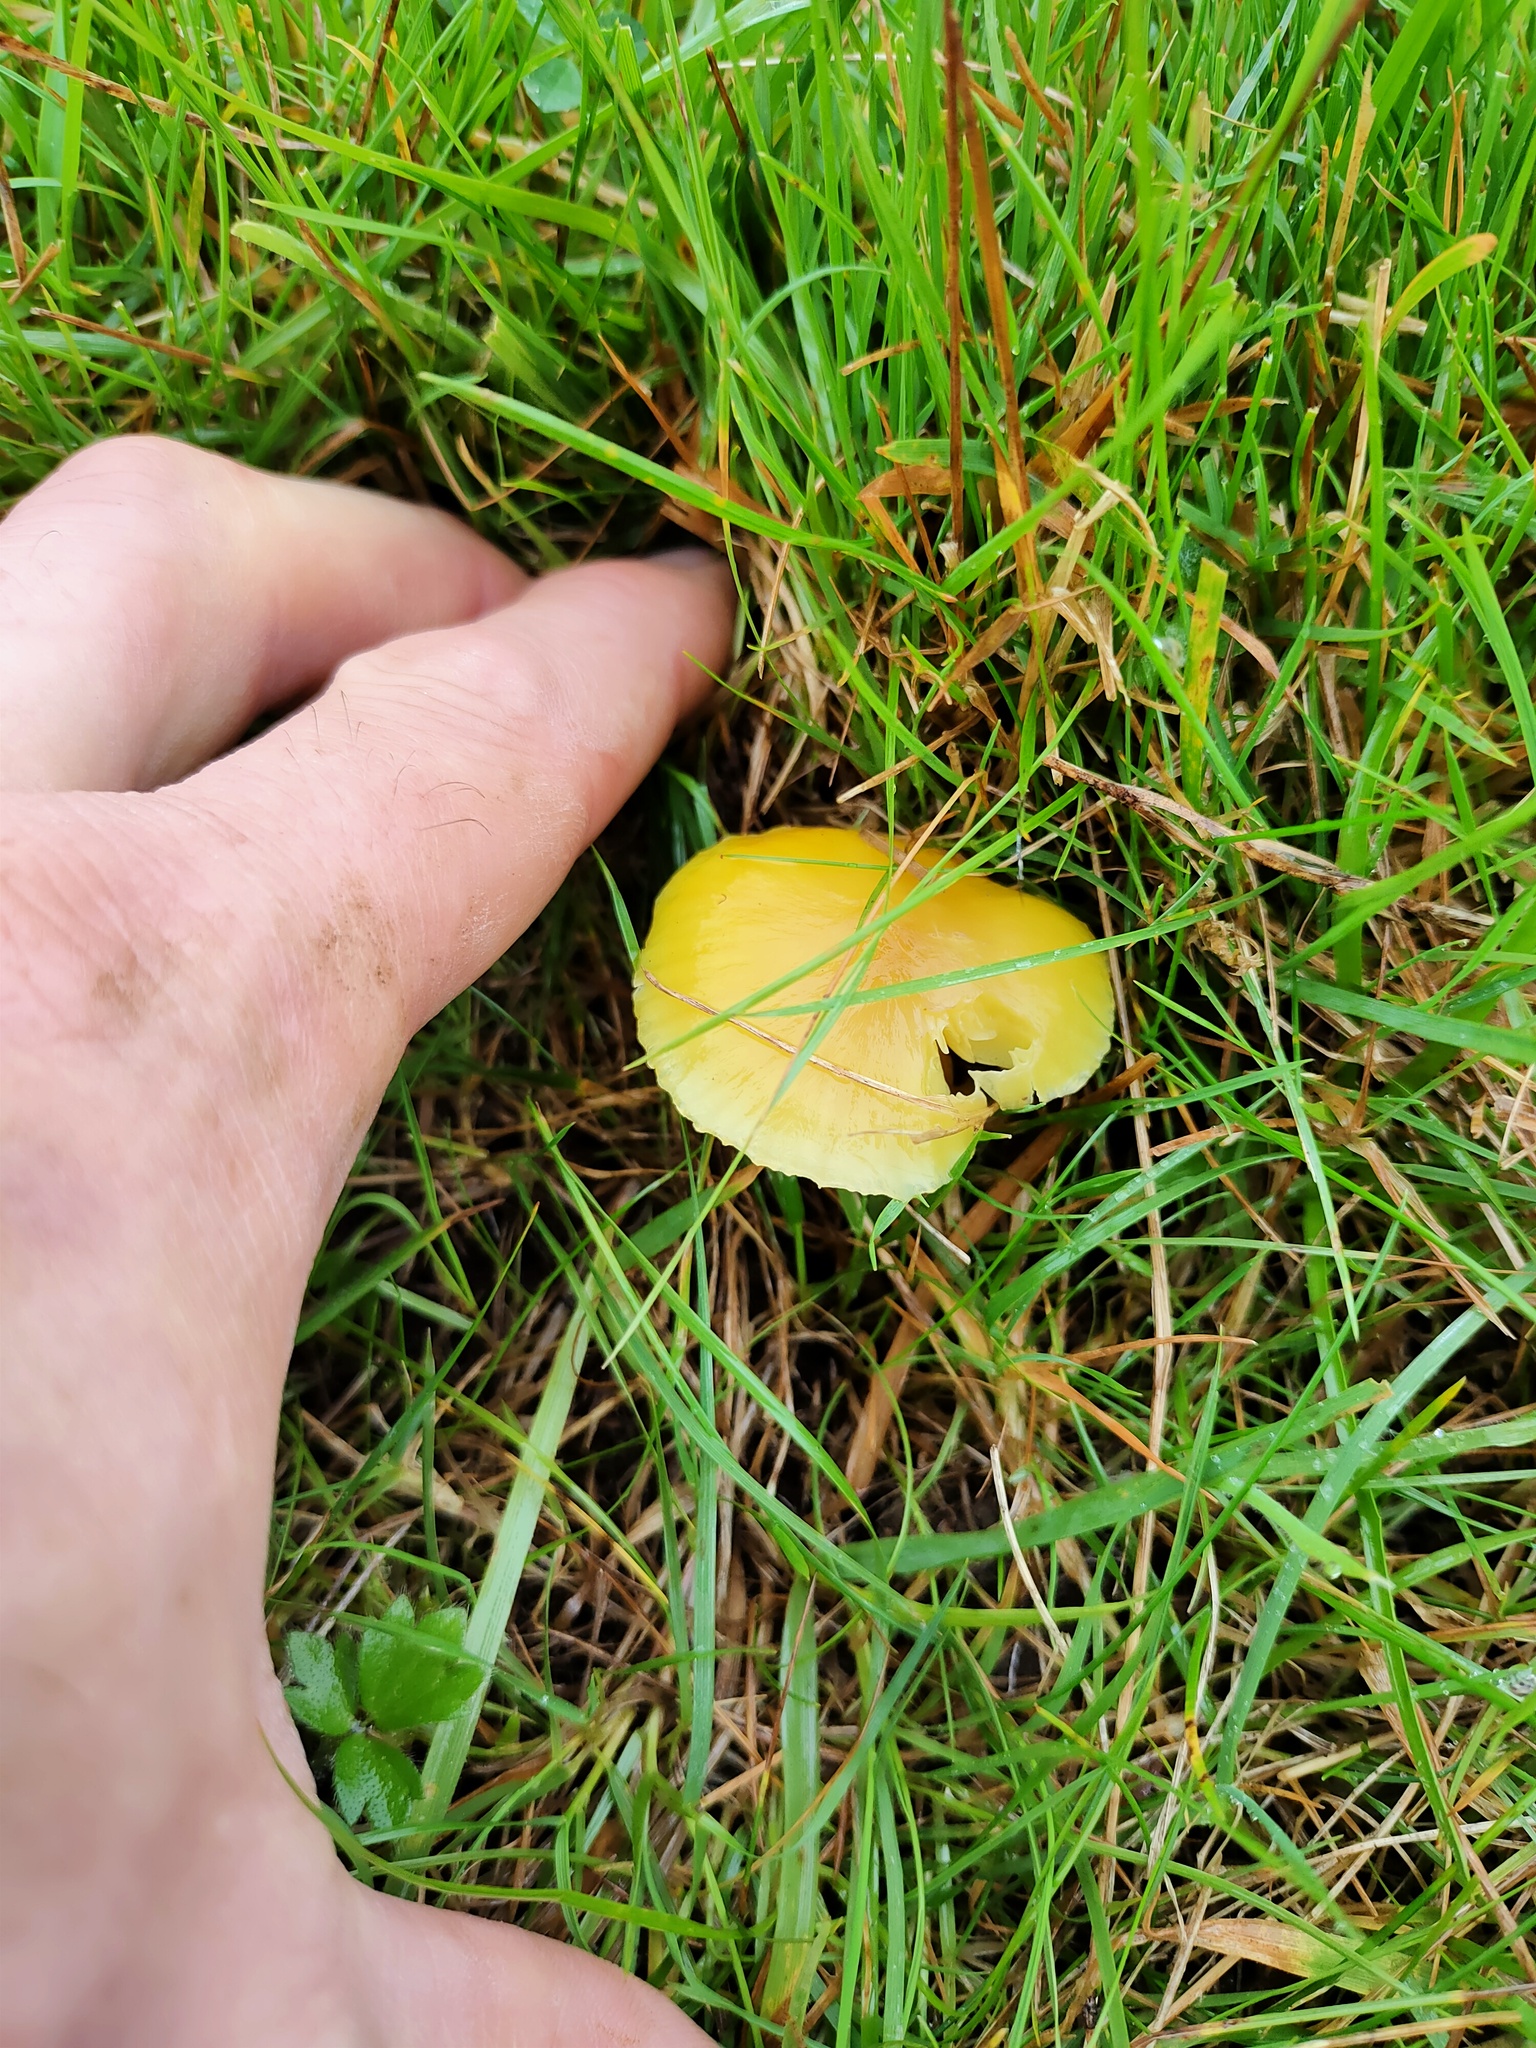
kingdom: Fungi
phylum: Basidiomycota
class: Agaricomycetes
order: Agaricales
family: Hygrophoraceae
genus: Hygrocybe
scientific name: Hygrocybe chlorophana
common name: Golden waxcap
